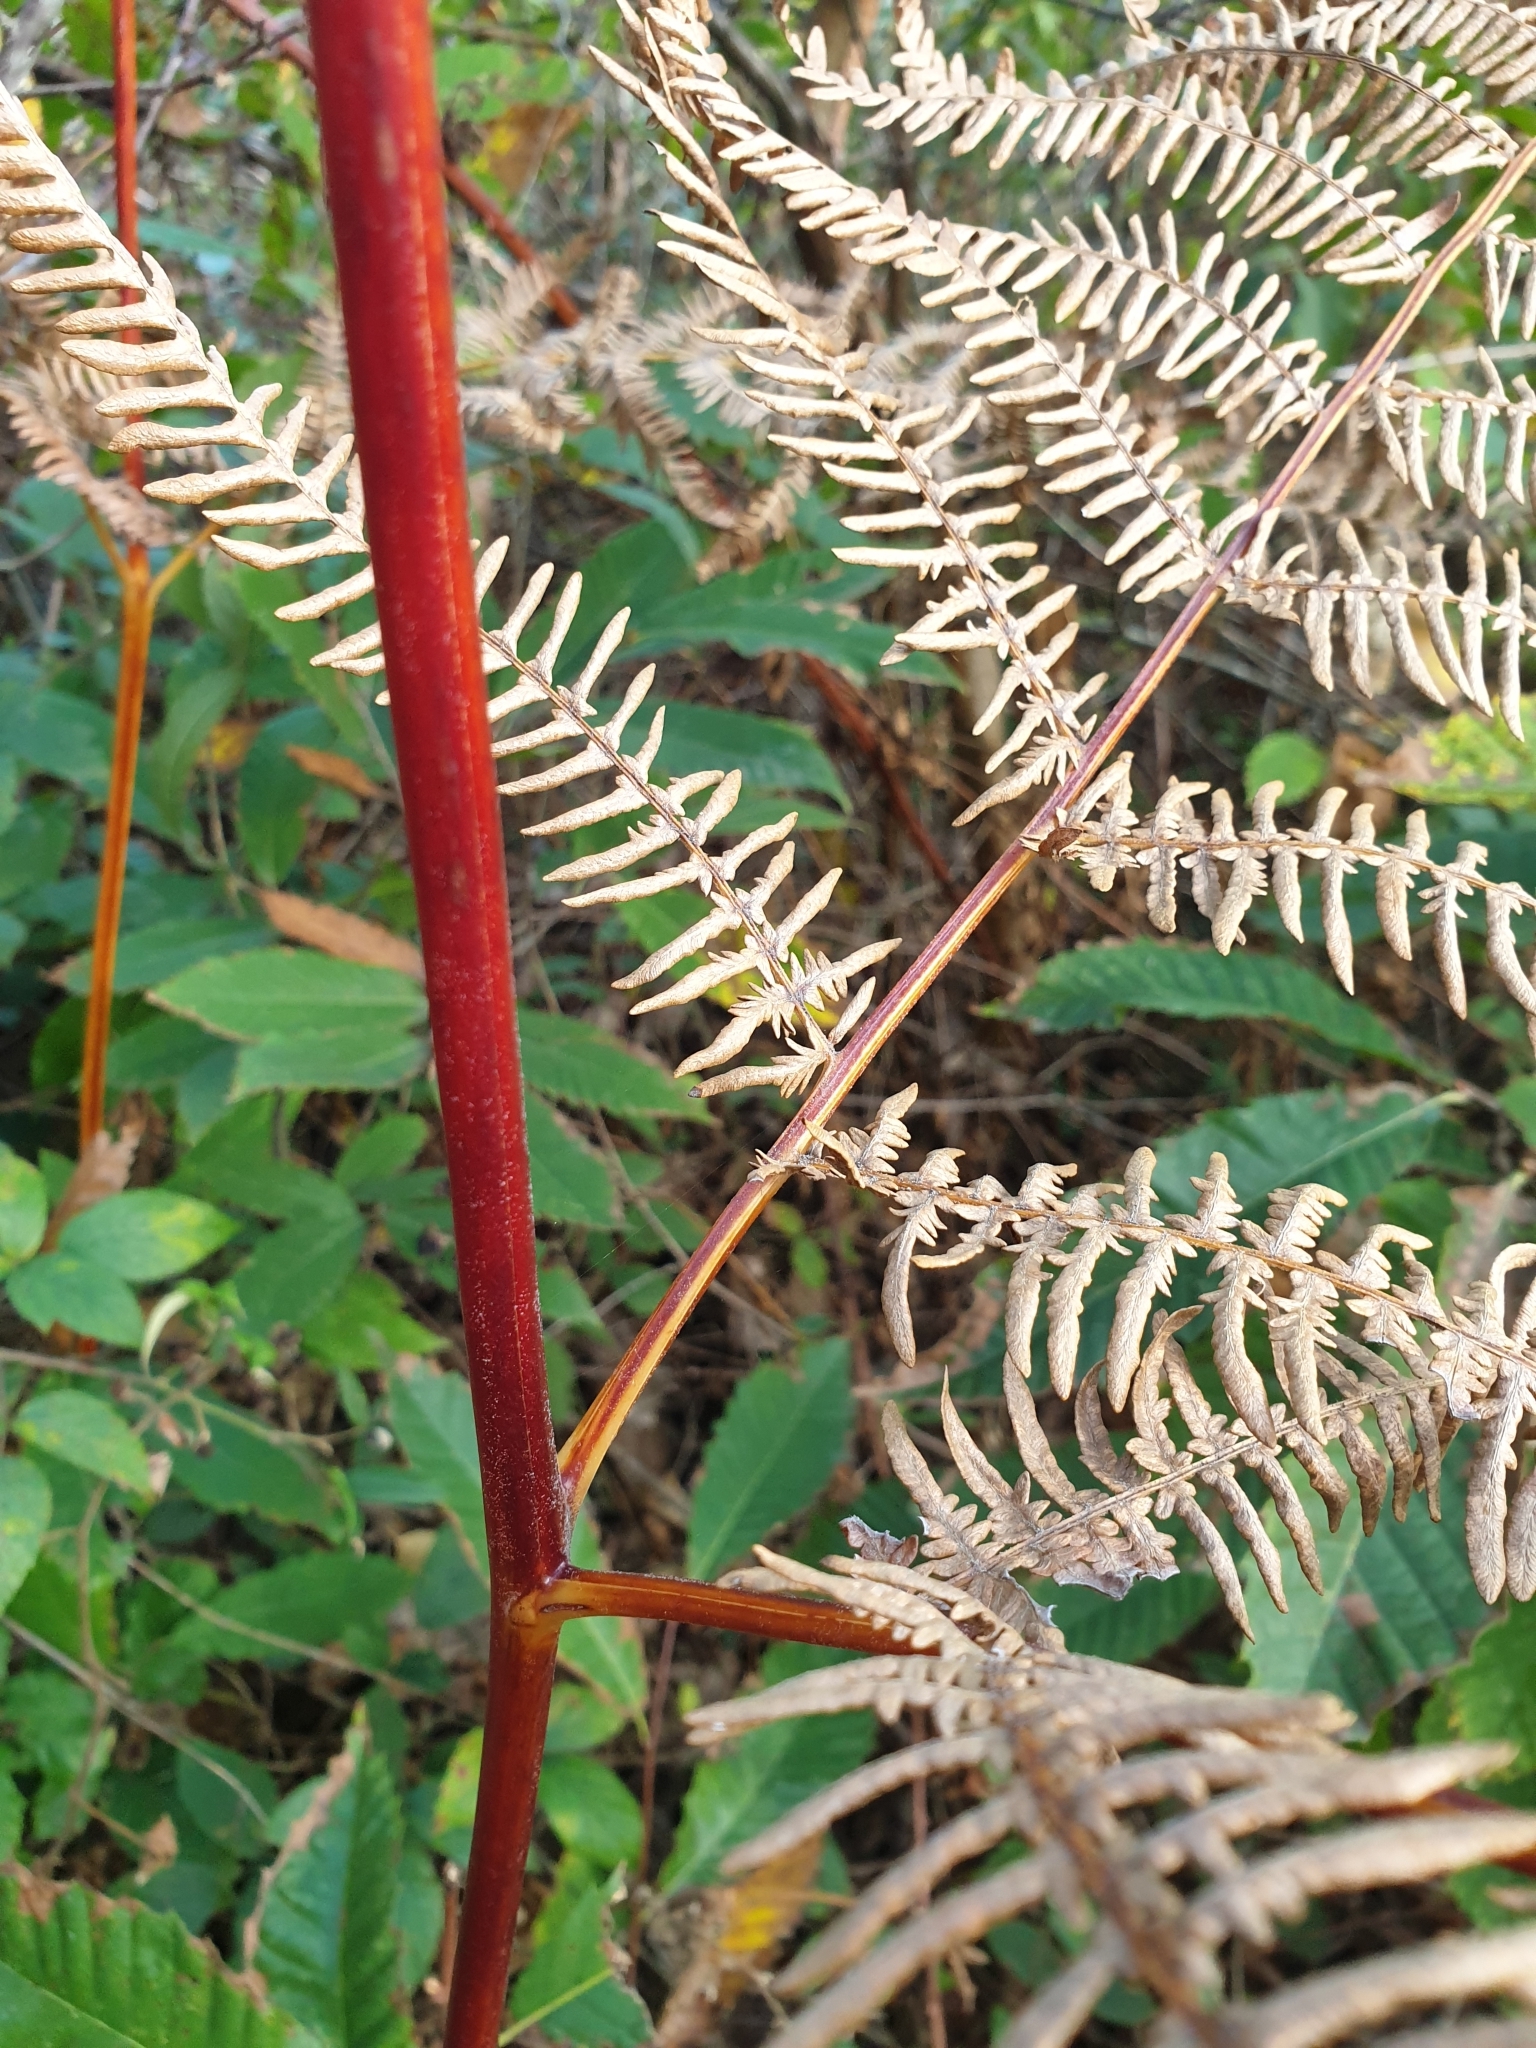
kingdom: Plantae
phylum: Tracheophyta
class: Polypodiopsida
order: Polypodiales
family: Dennstaedtiaceae
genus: Pteridium
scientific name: Pteridium aquilinum
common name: Bracken
